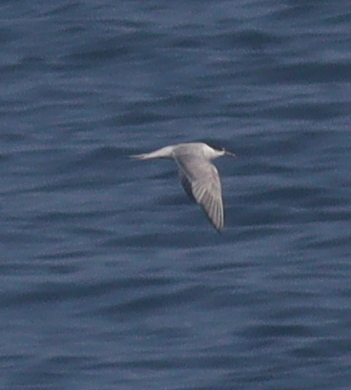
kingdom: Animalia
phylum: Chordata
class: Aves
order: Charadriiformes
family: Laridae
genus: Sterna
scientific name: Sterna hirundo
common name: Common tern
